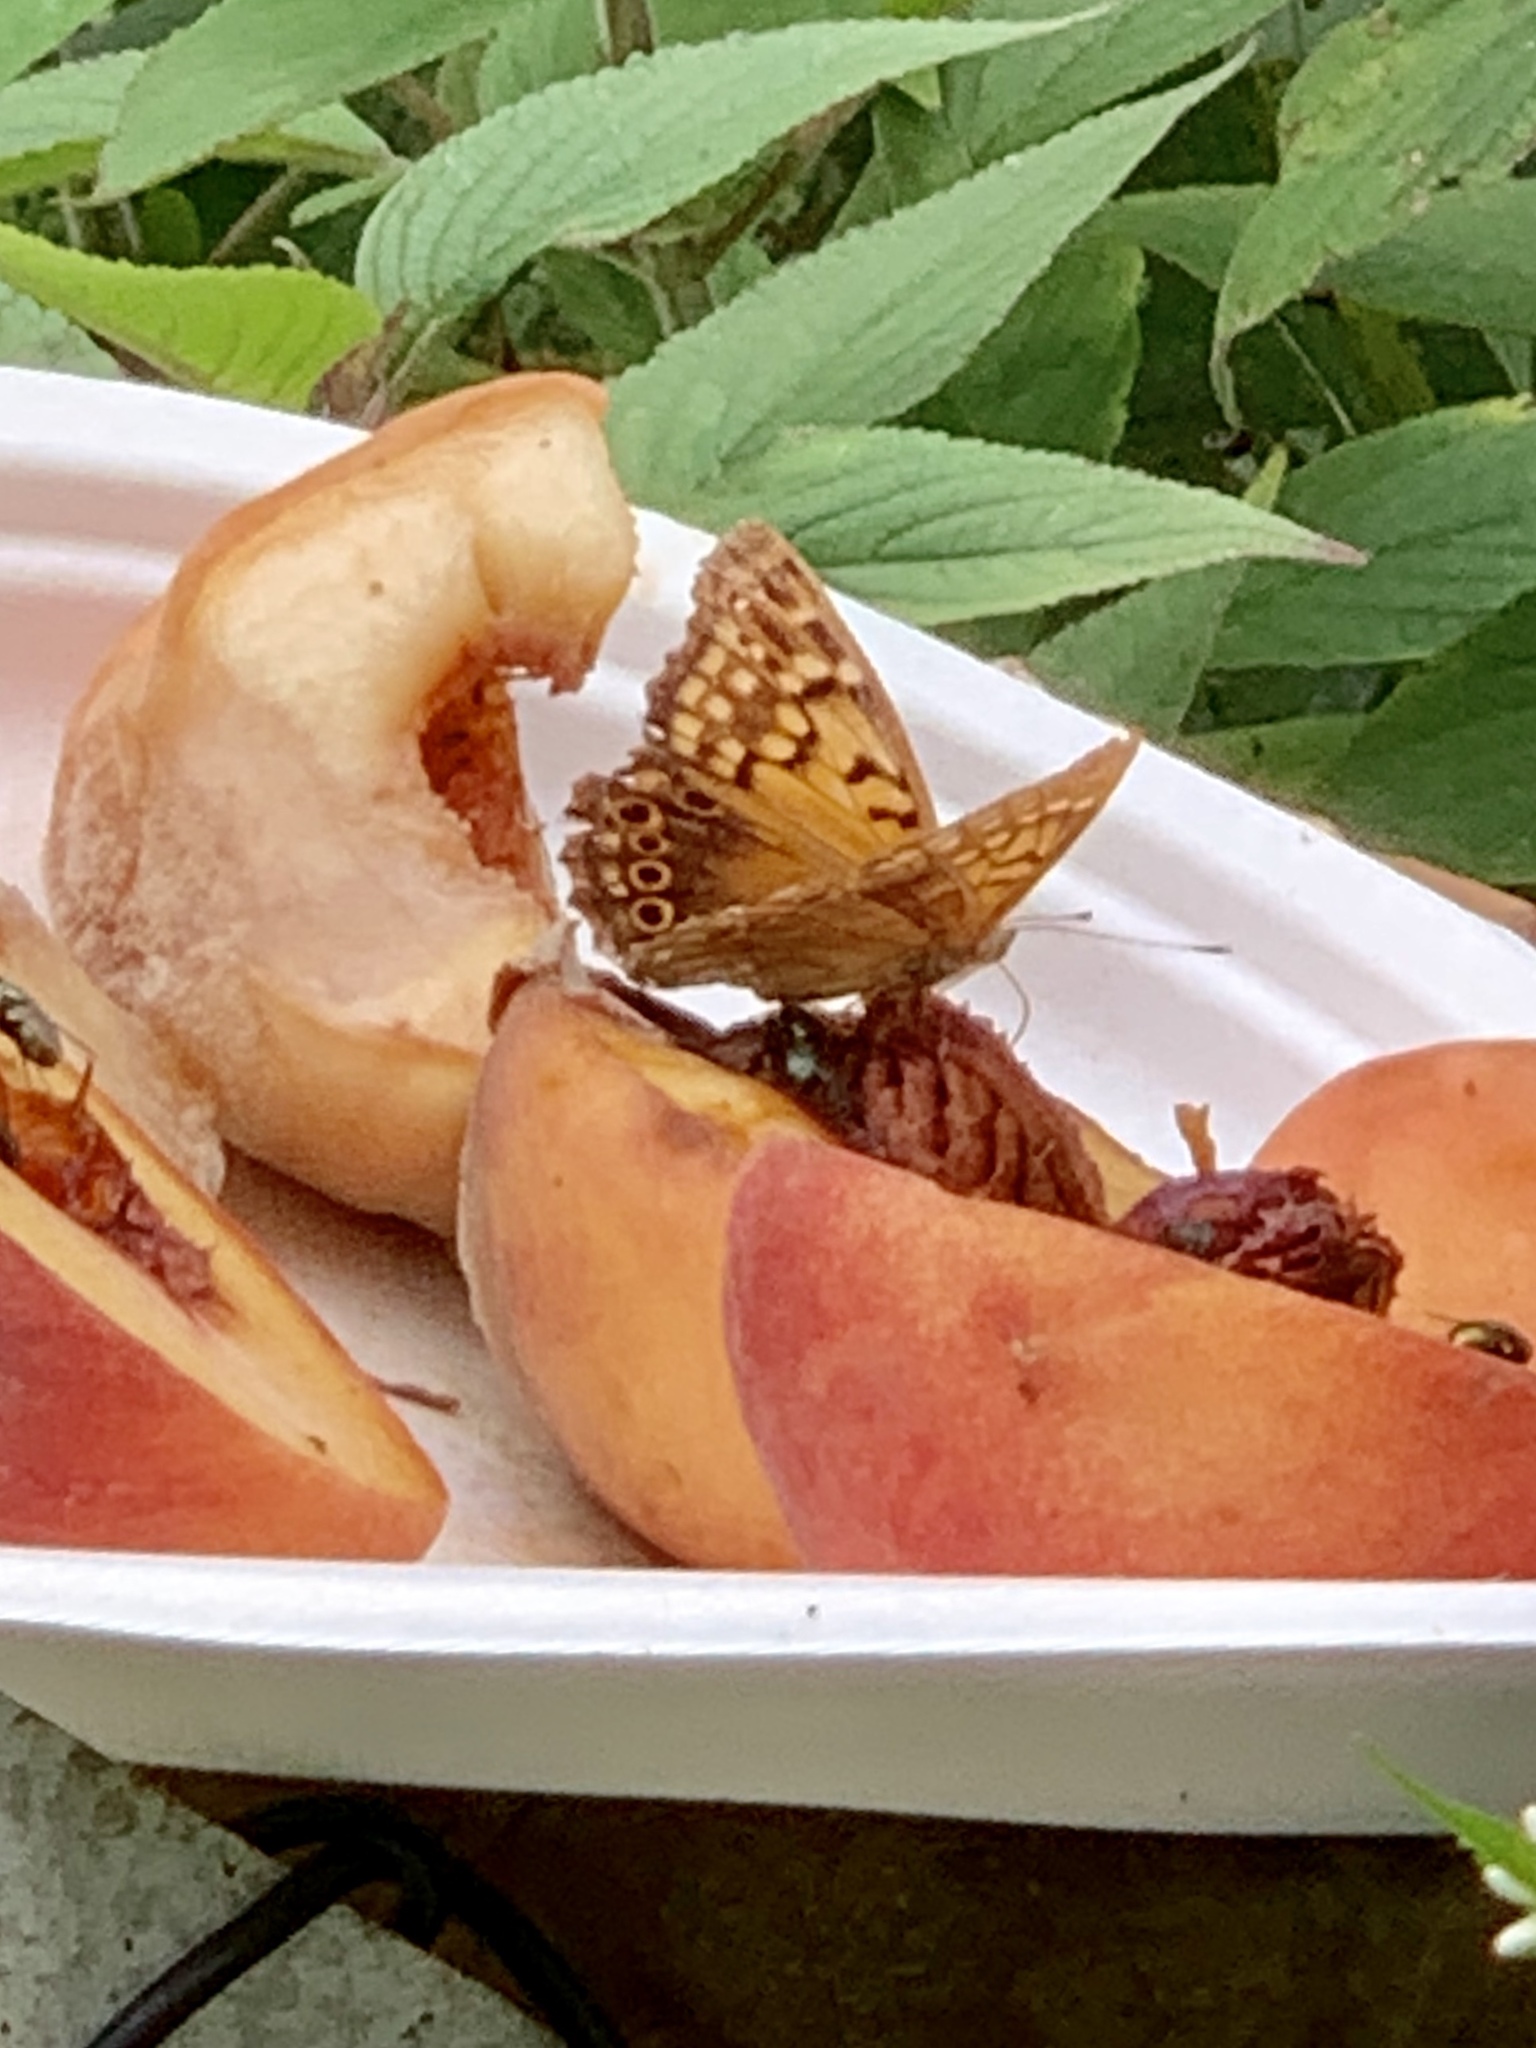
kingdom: Animalia
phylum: Arthropoda
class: Insecta
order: Lepidoptera
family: Nymphalidae
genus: Asterocampa
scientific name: Asterocampa clyton
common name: Tawny emperor
